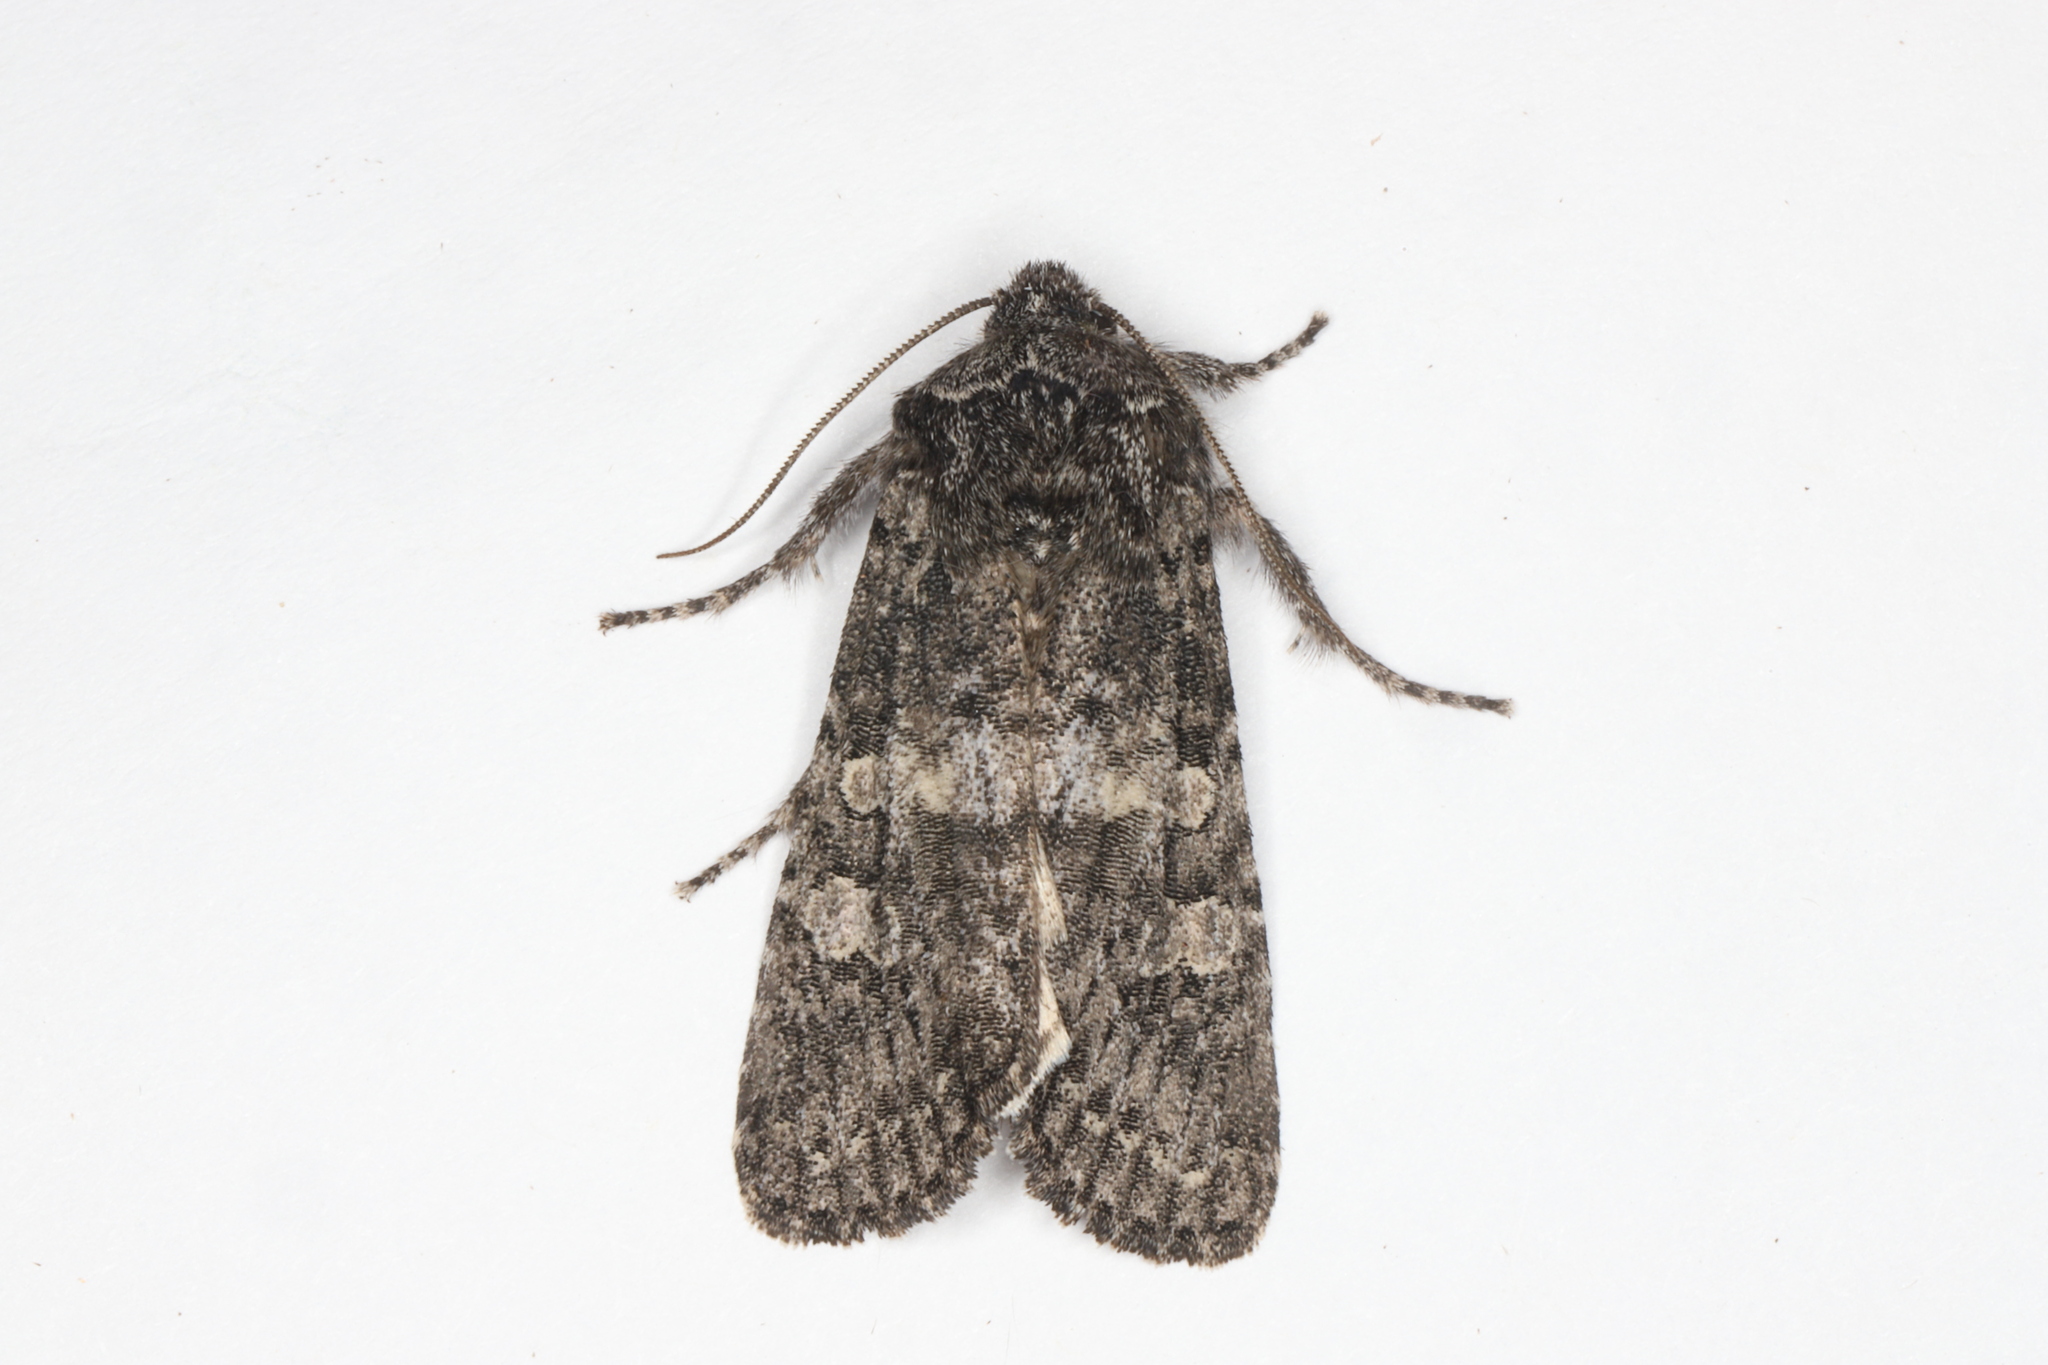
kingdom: Animalia
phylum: Arthropoda
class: Insecta
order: Lepidoptera
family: Noctuidae
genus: Egira
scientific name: Egira dolosa
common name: Lined black aspen cat.
